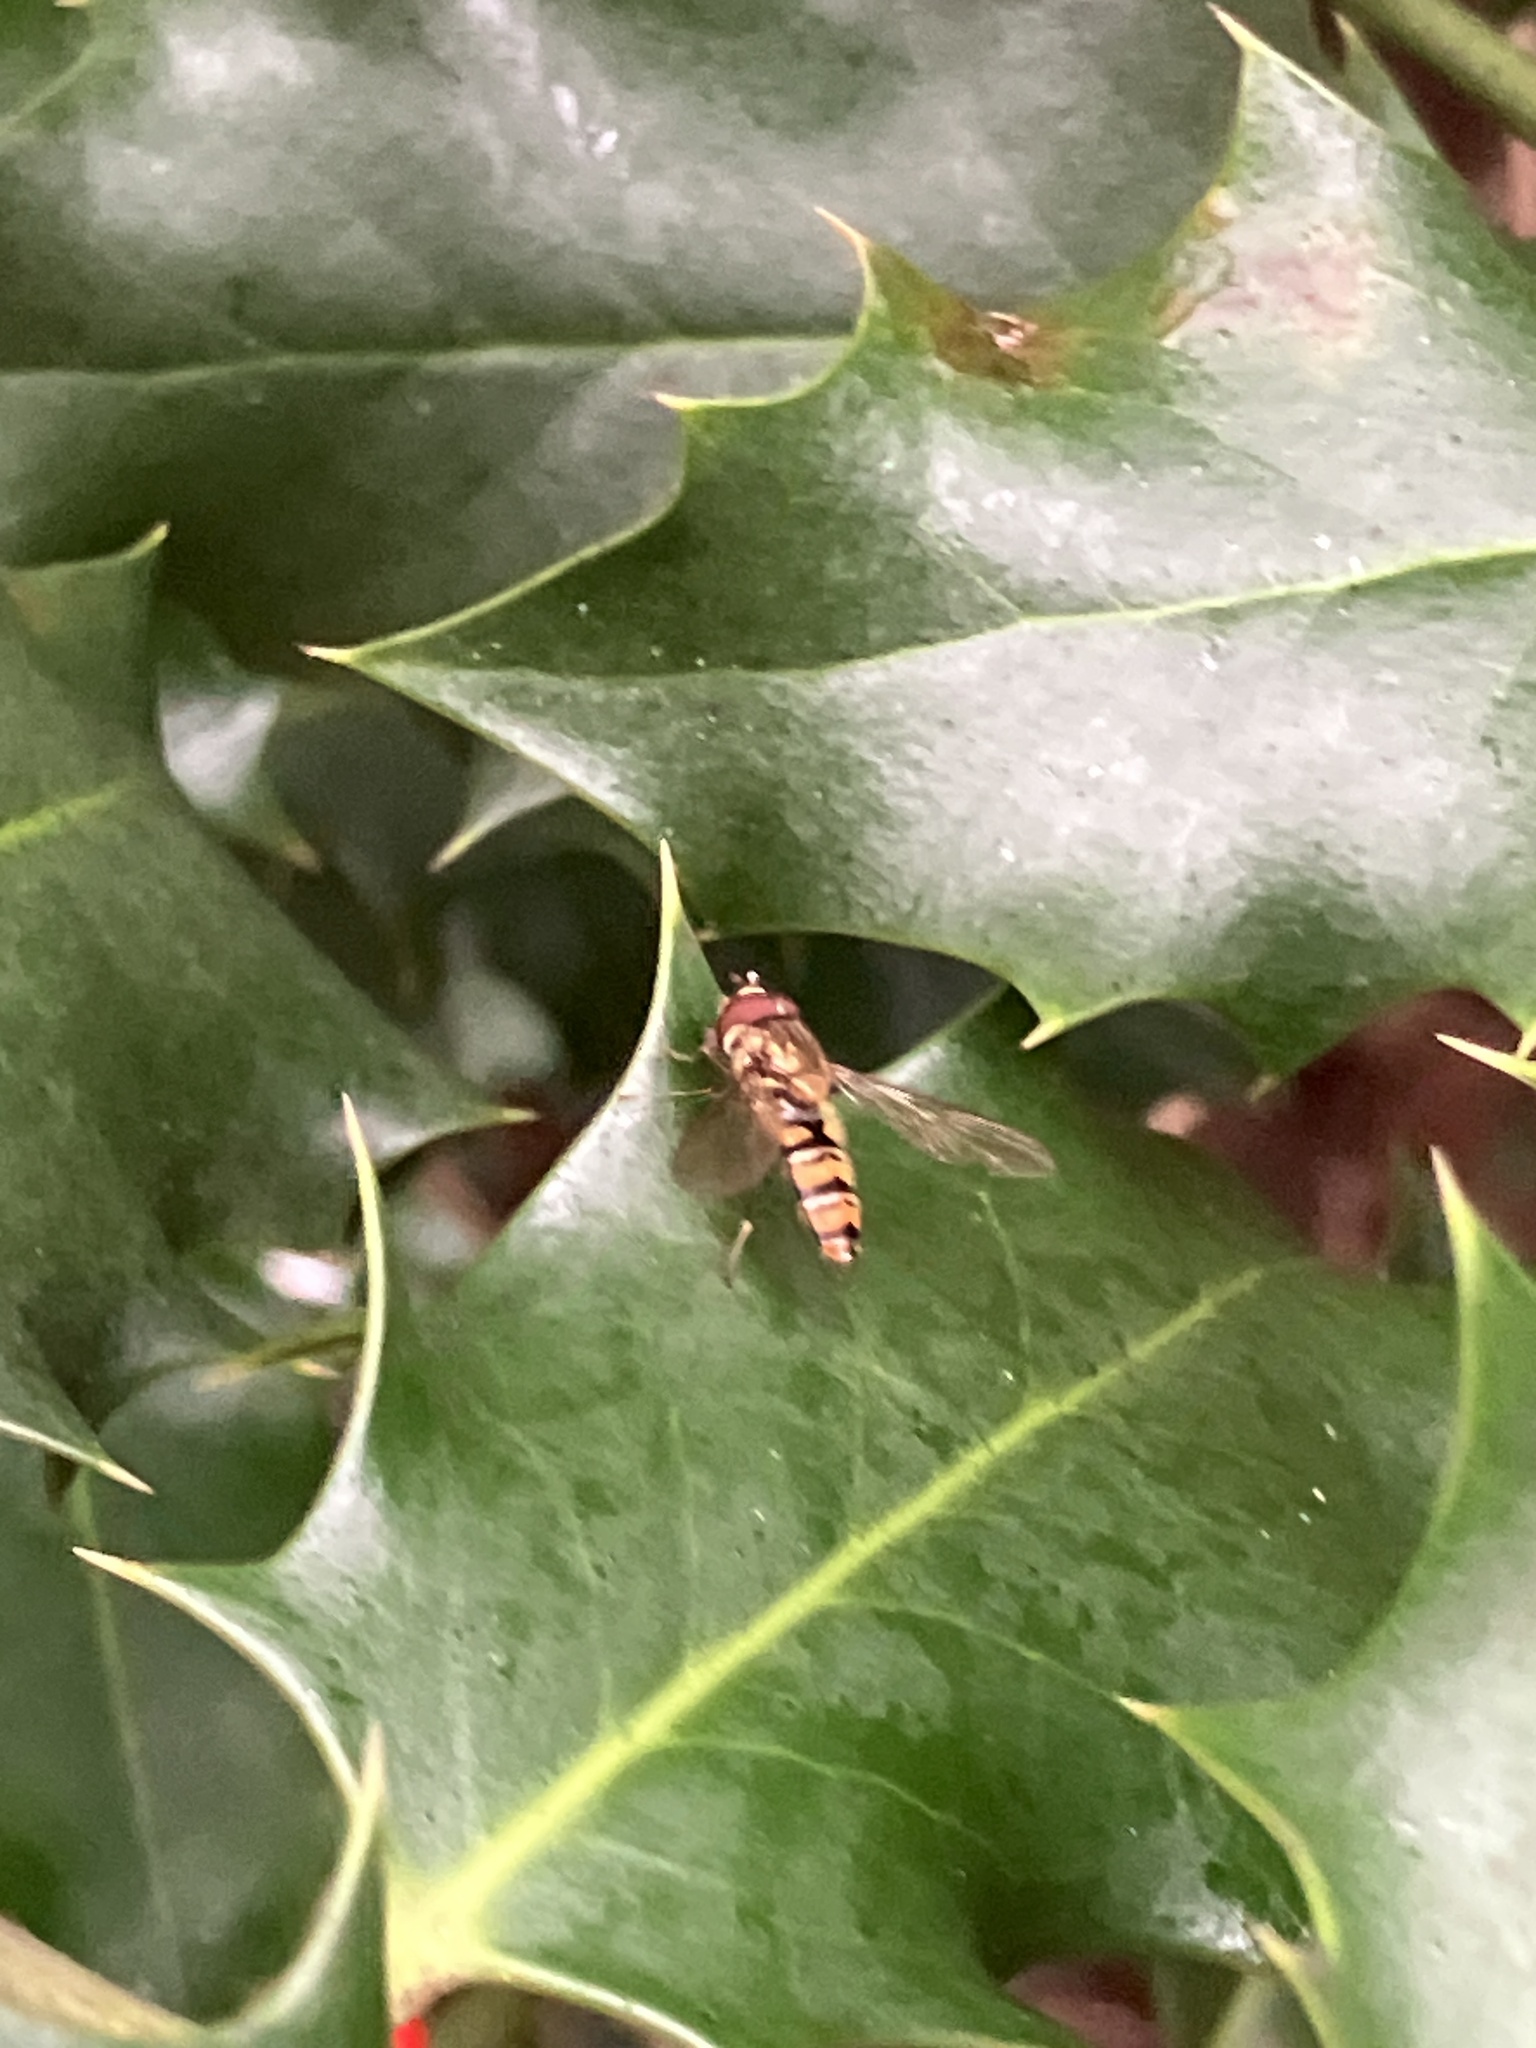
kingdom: Animalia
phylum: Arthropoda
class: Insecta
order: Diptera
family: Syrphidae
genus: Episyrphus
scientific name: Episyrphus balteatus
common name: Marmalade hoverfly
